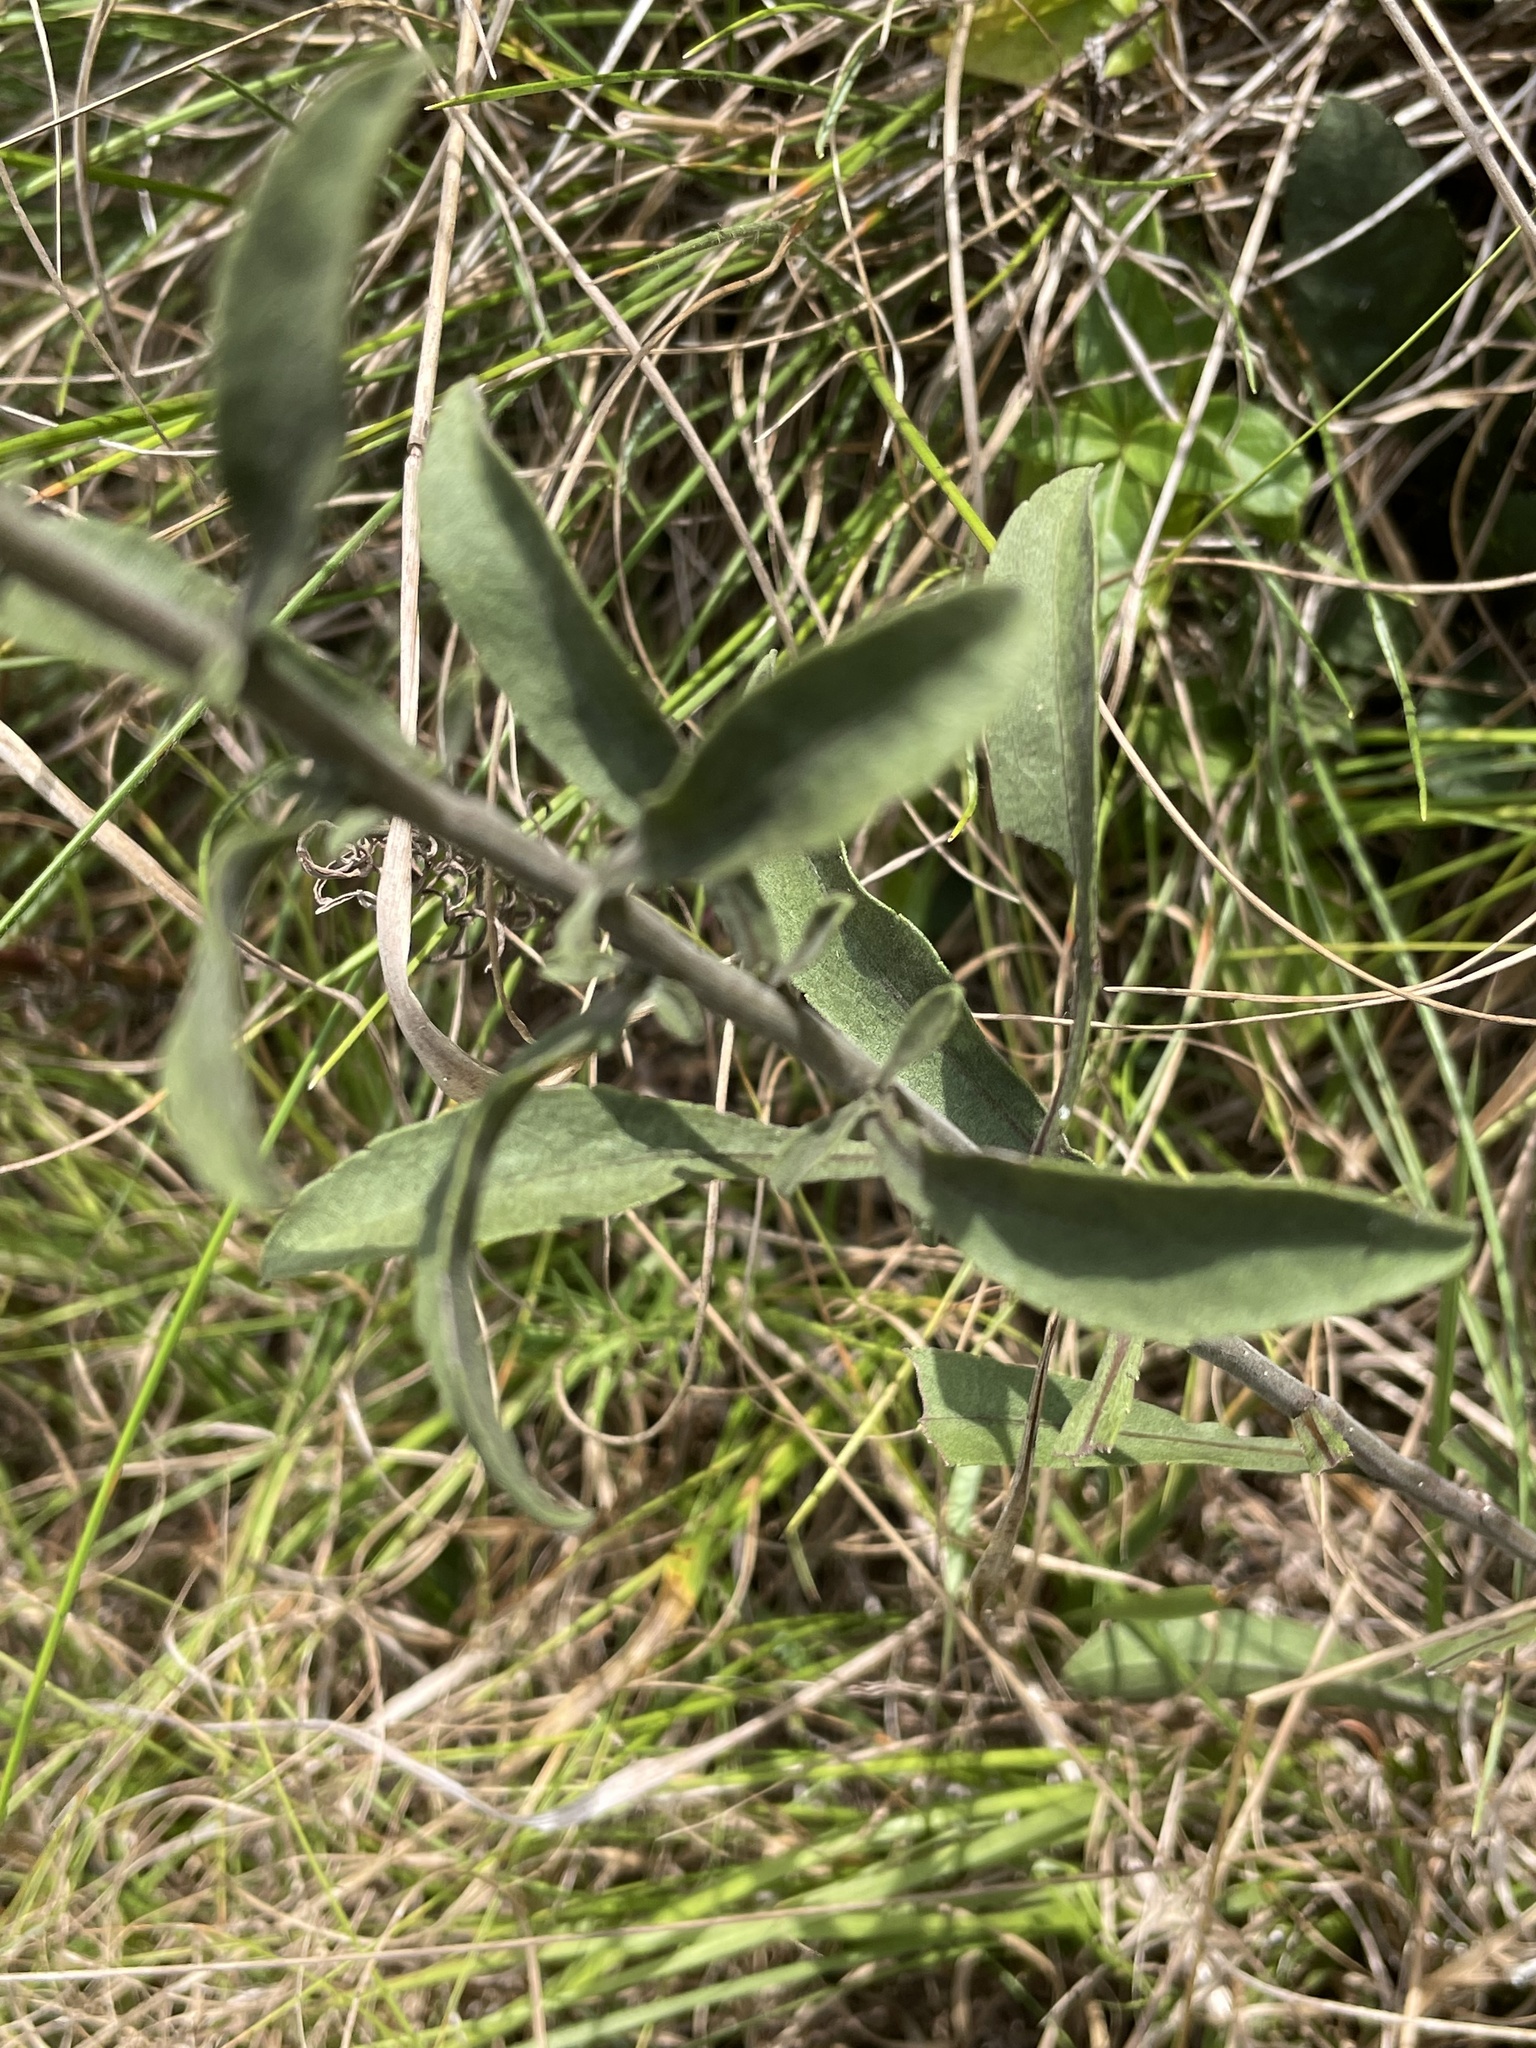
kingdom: Plantae
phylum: Tracheophyta
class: Magnoliopsida
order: Asterales
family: Asteraceae
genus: Solidago
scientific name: Solidago nemoralis
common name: Grey goldenrod
